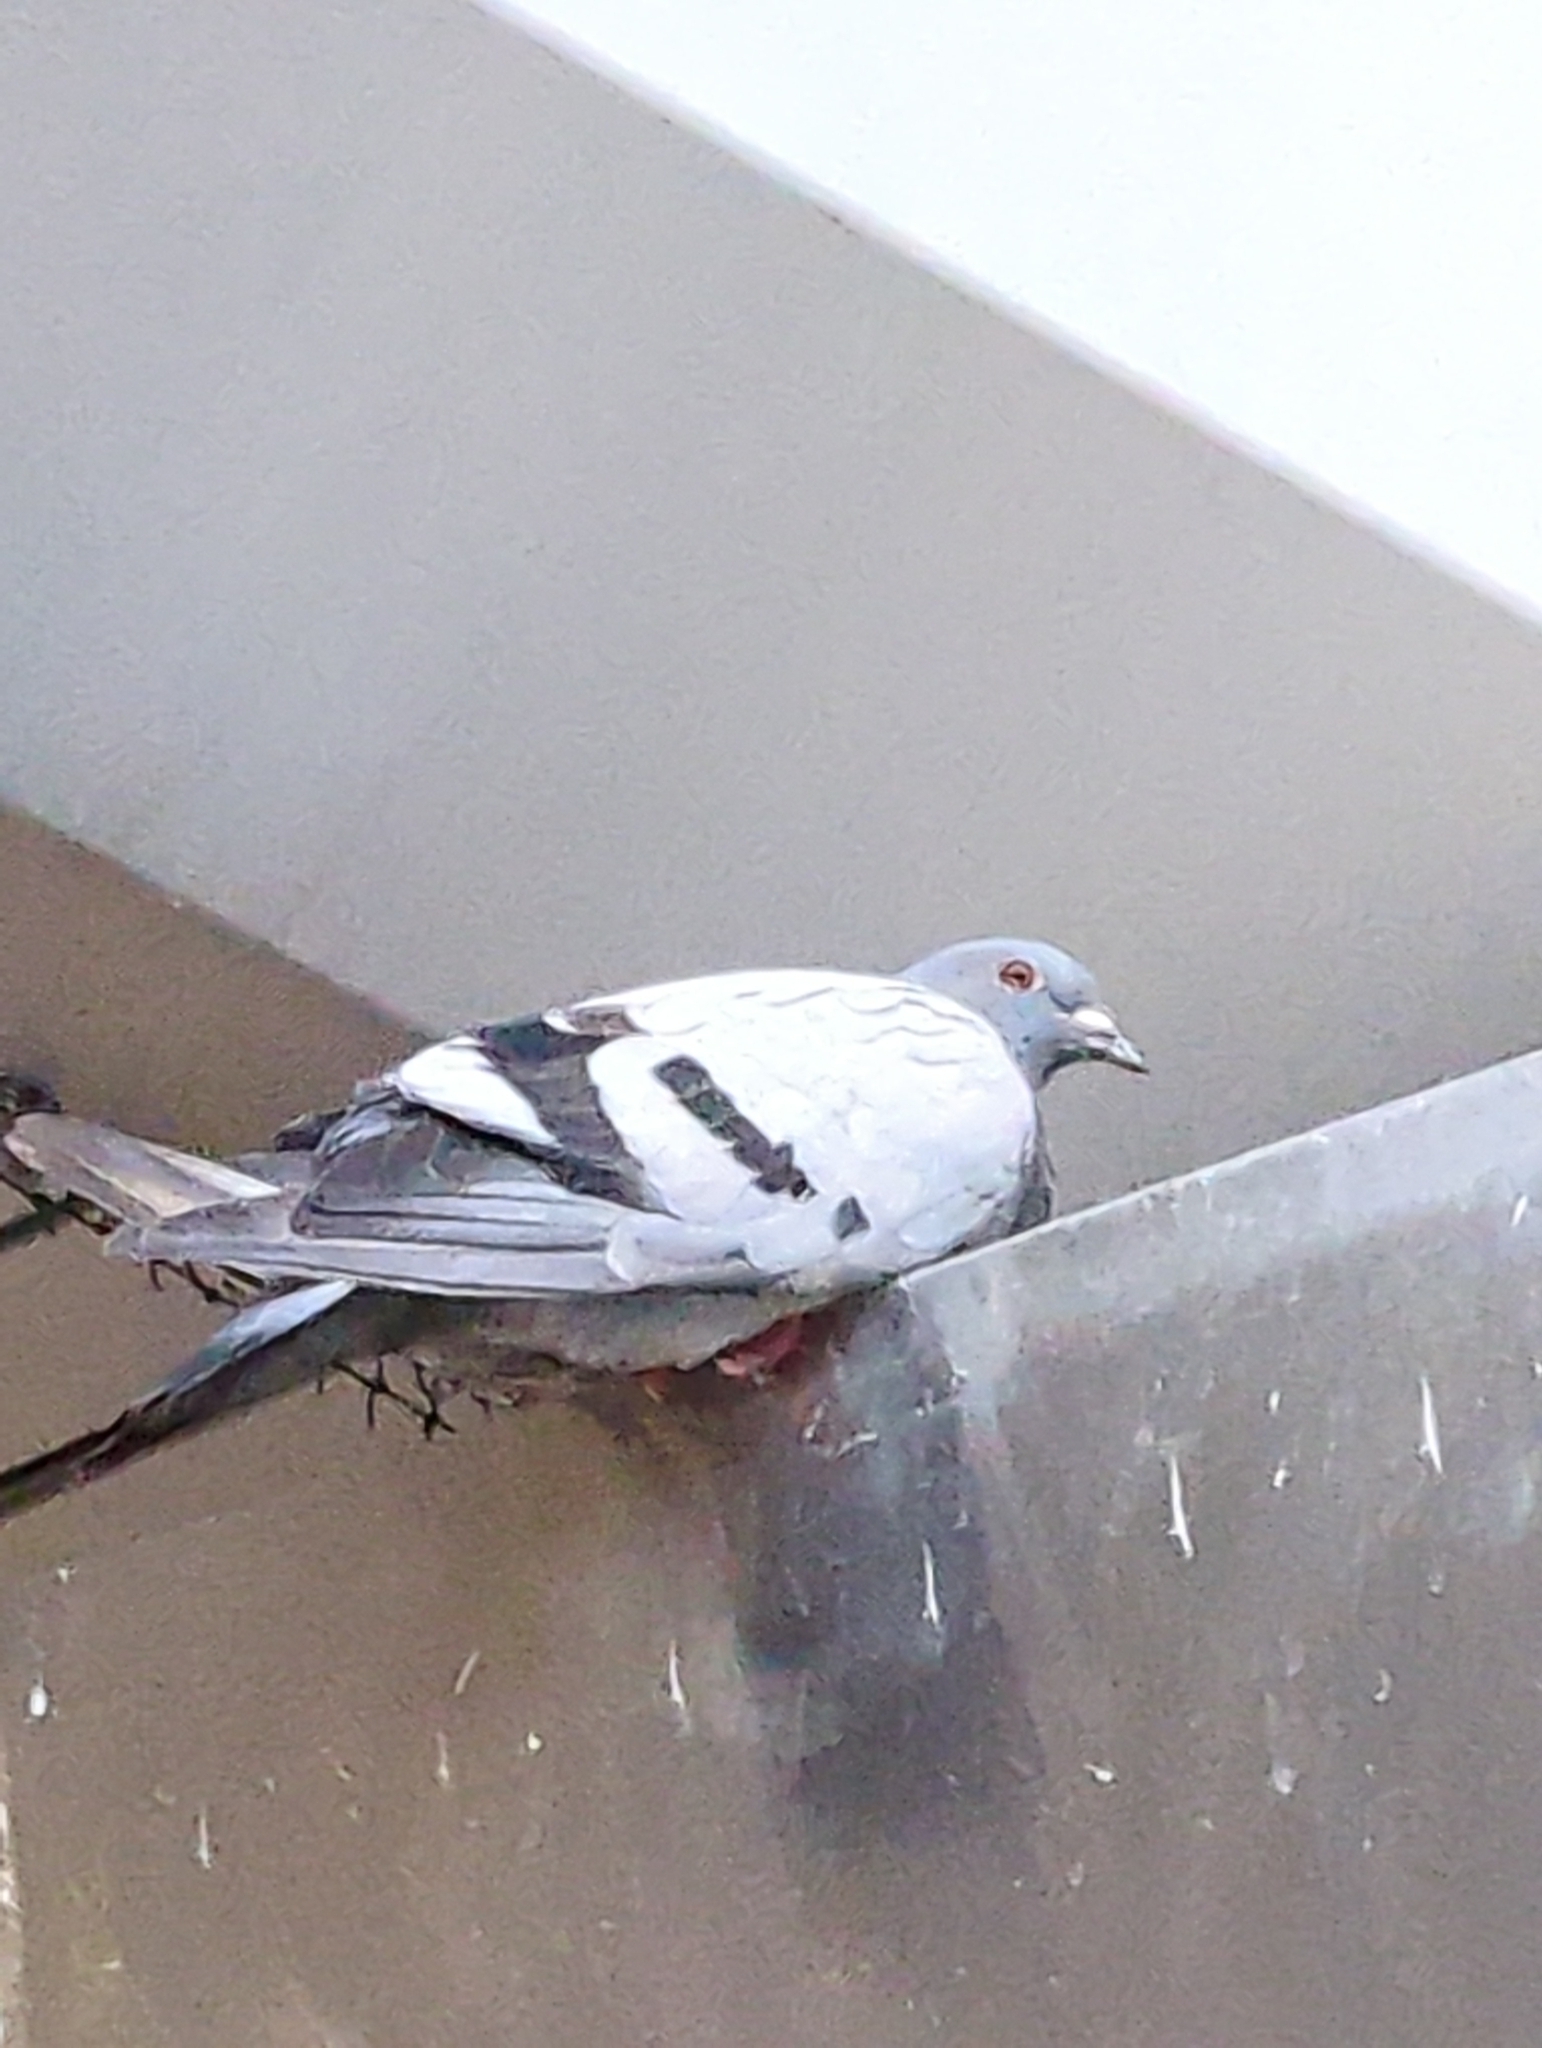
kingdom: Animalia
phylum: Chordata
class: Aves
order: Columbiformes
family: Columbidae
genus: Columba
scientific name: Columba livia
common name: Rock pigeon
